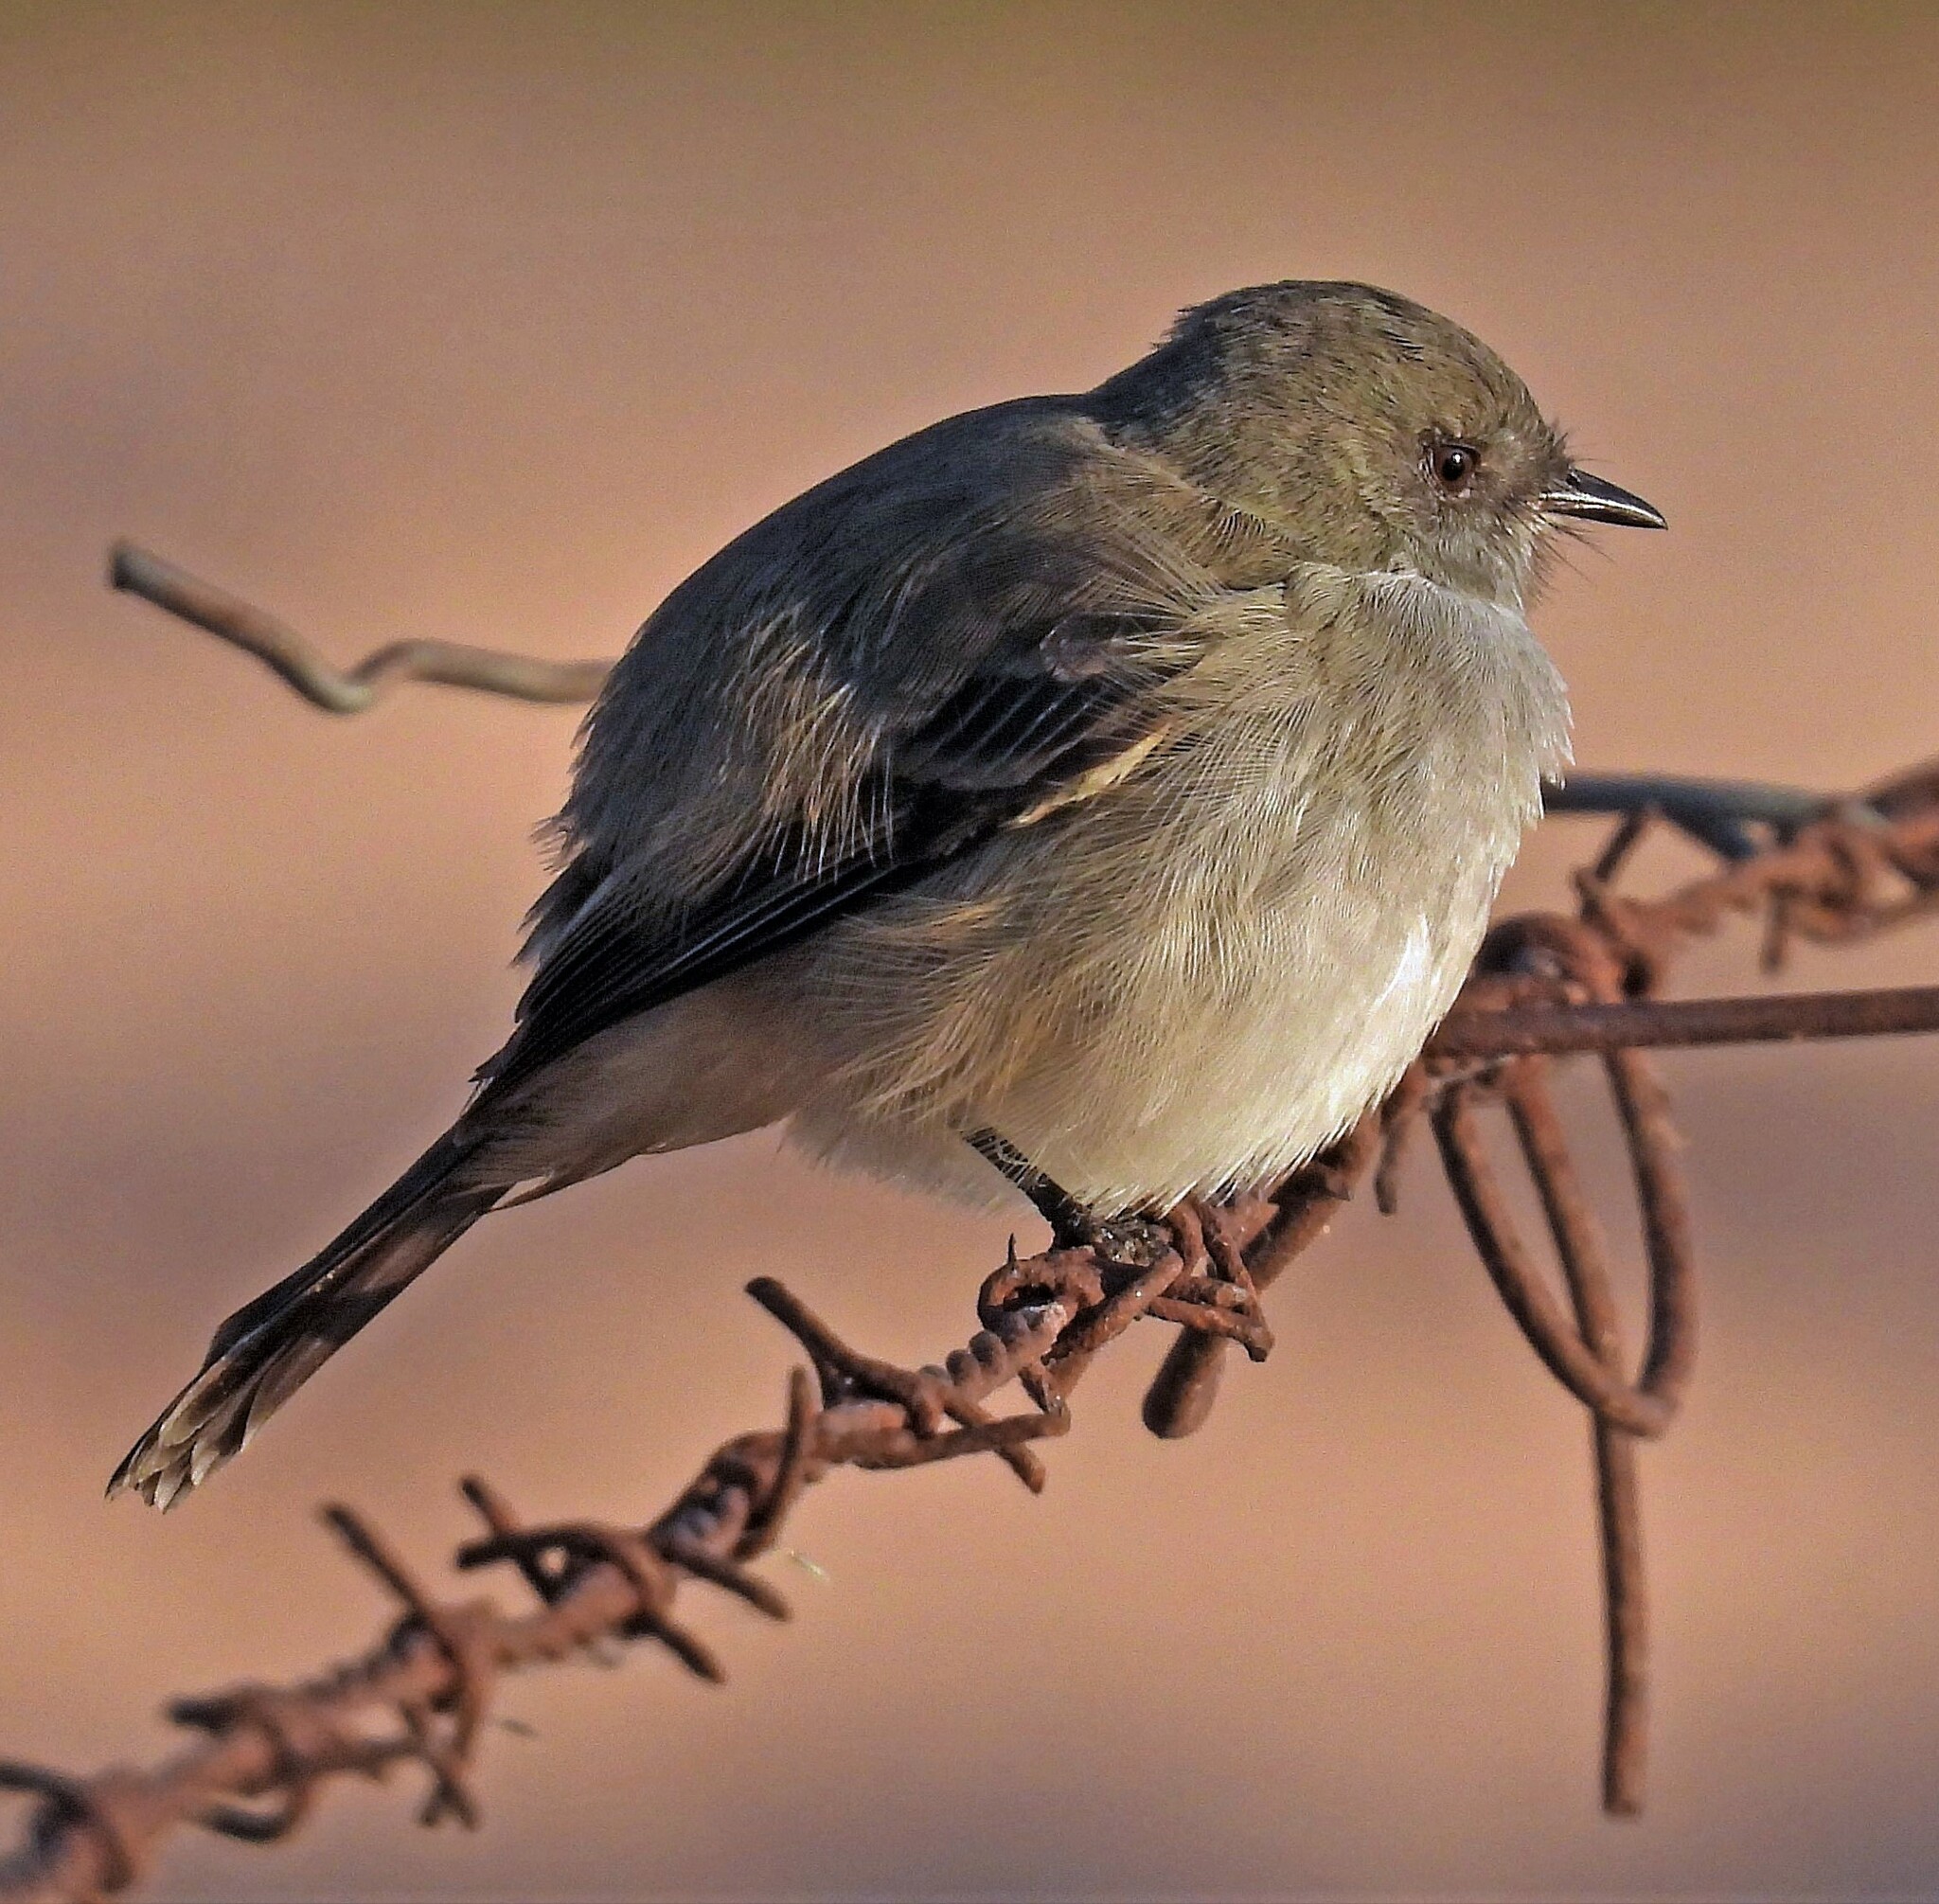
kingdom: Animalia
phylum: Chordata
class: Aves
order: Passeriformes
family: Tyrannidae
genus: Serpophaga
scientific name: Serpophaga nigricans
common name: Sooty tyrannulet
